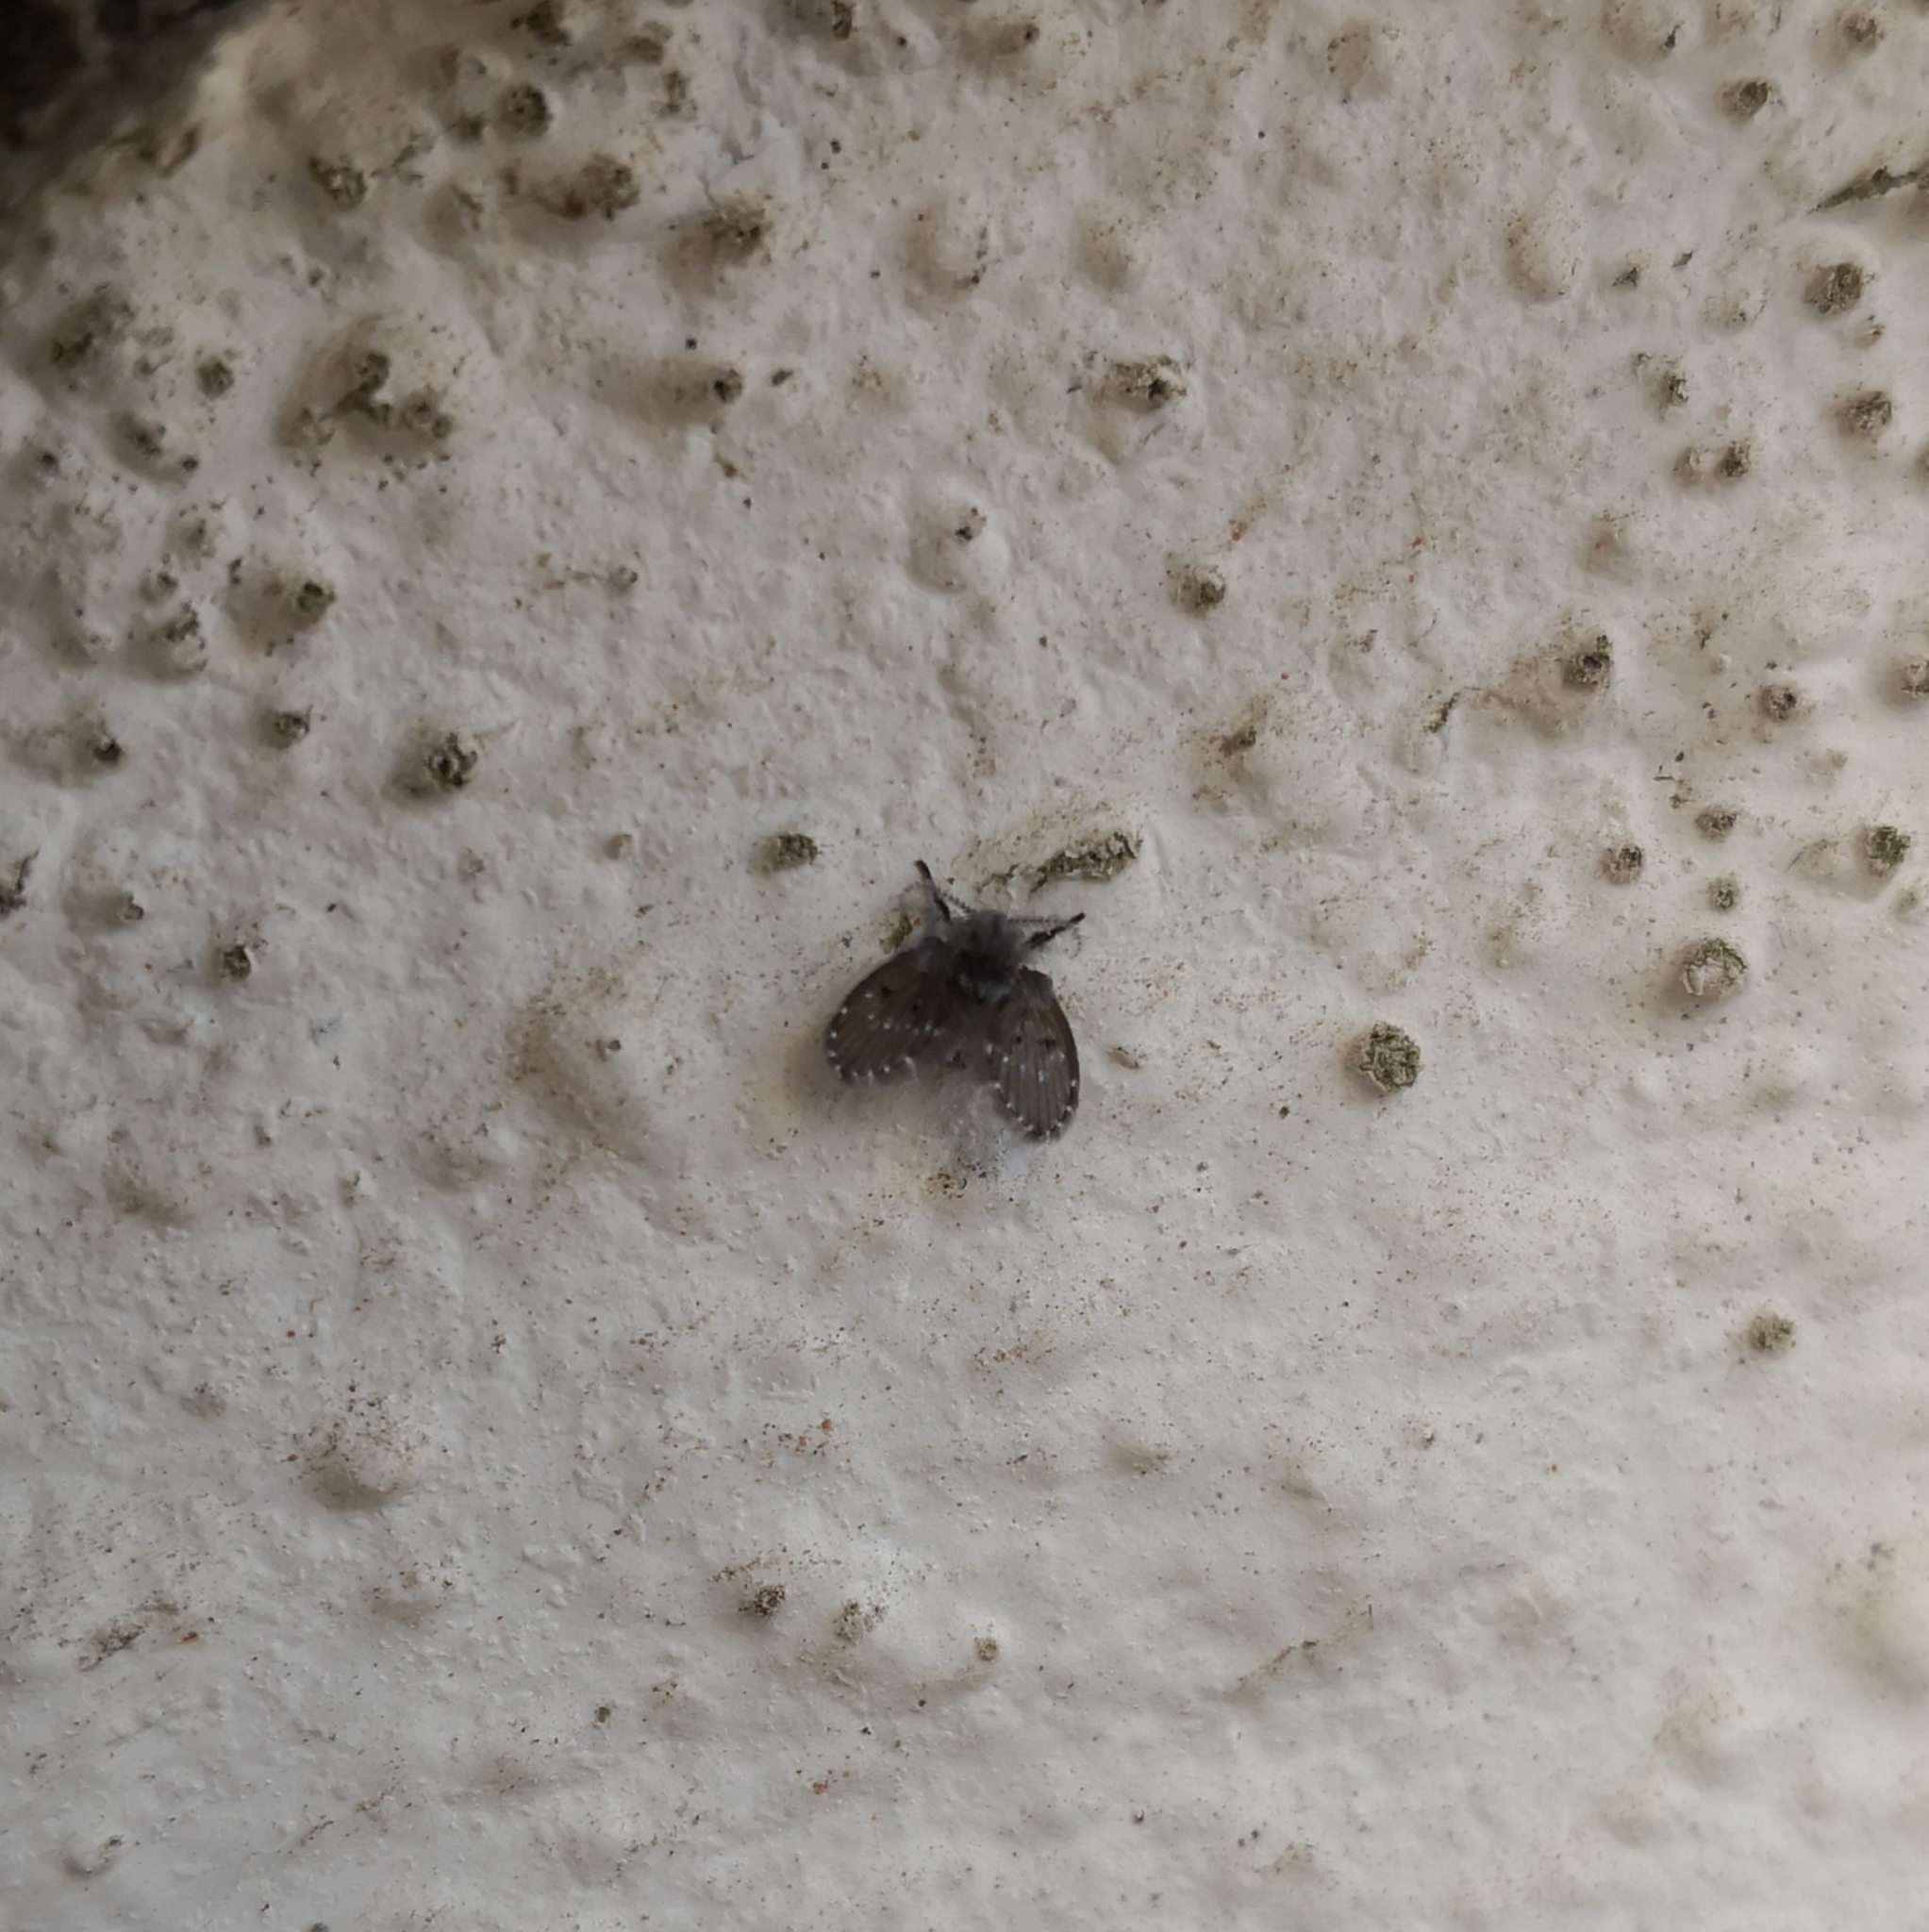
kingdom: Animalia
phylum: Arthropoda
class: Insecta
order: Diptera
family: Psychodidae
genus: Clogmia
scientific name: Clogmia albipunctatus
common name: White-spotted moth fly
